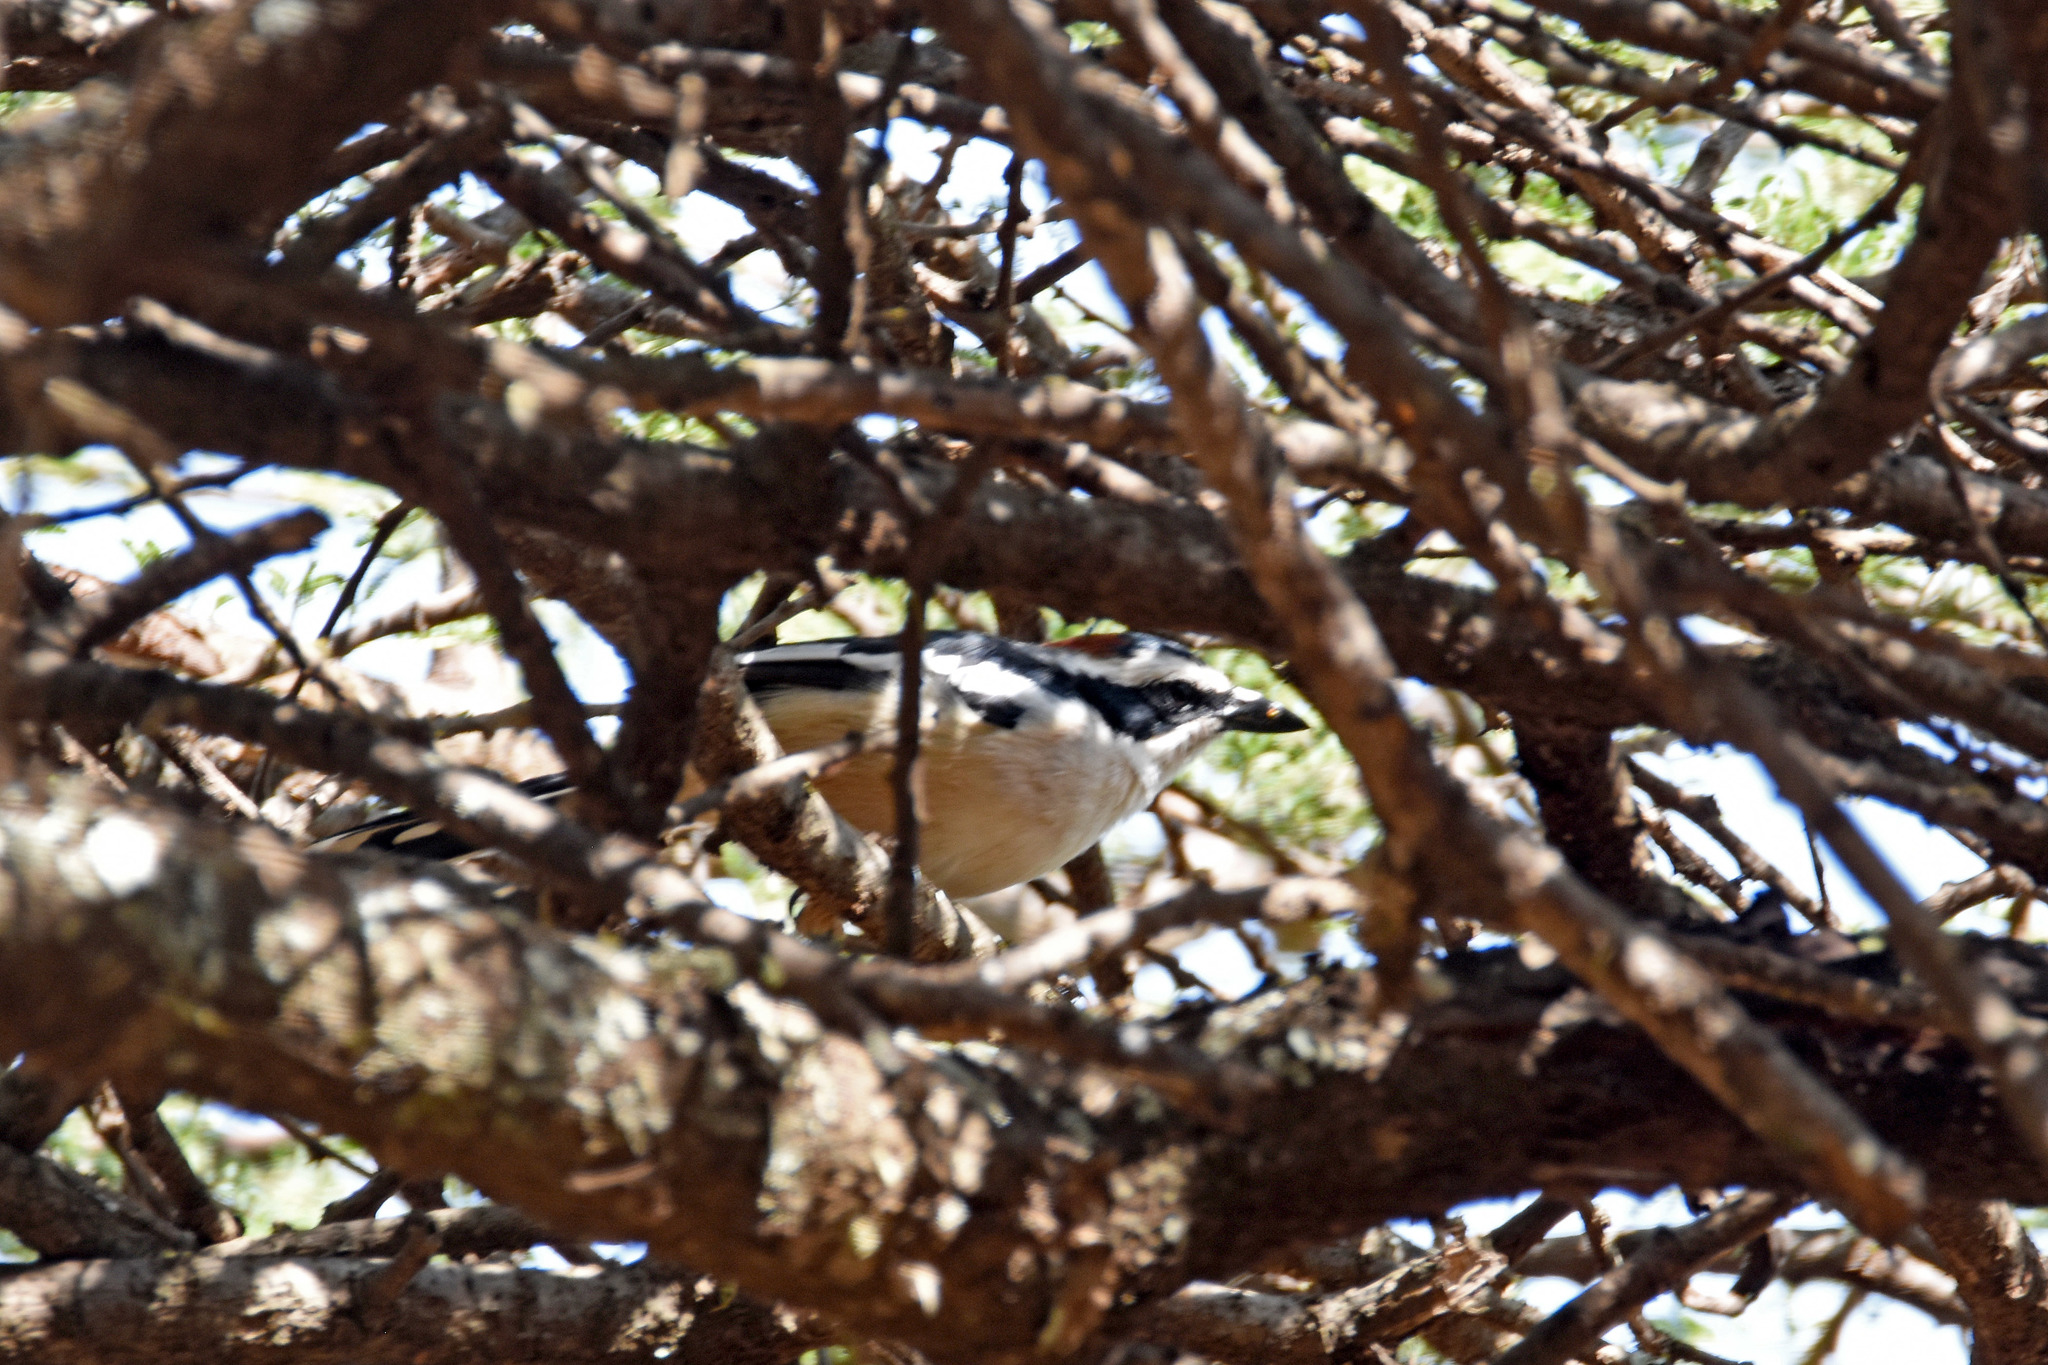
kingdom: Animalia
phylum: Chordata
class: Aves
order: Passeriformes
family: Malaconotidae
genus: Laniarius
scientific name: Laniarius ruficeps
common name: Red-naped bushshrike
